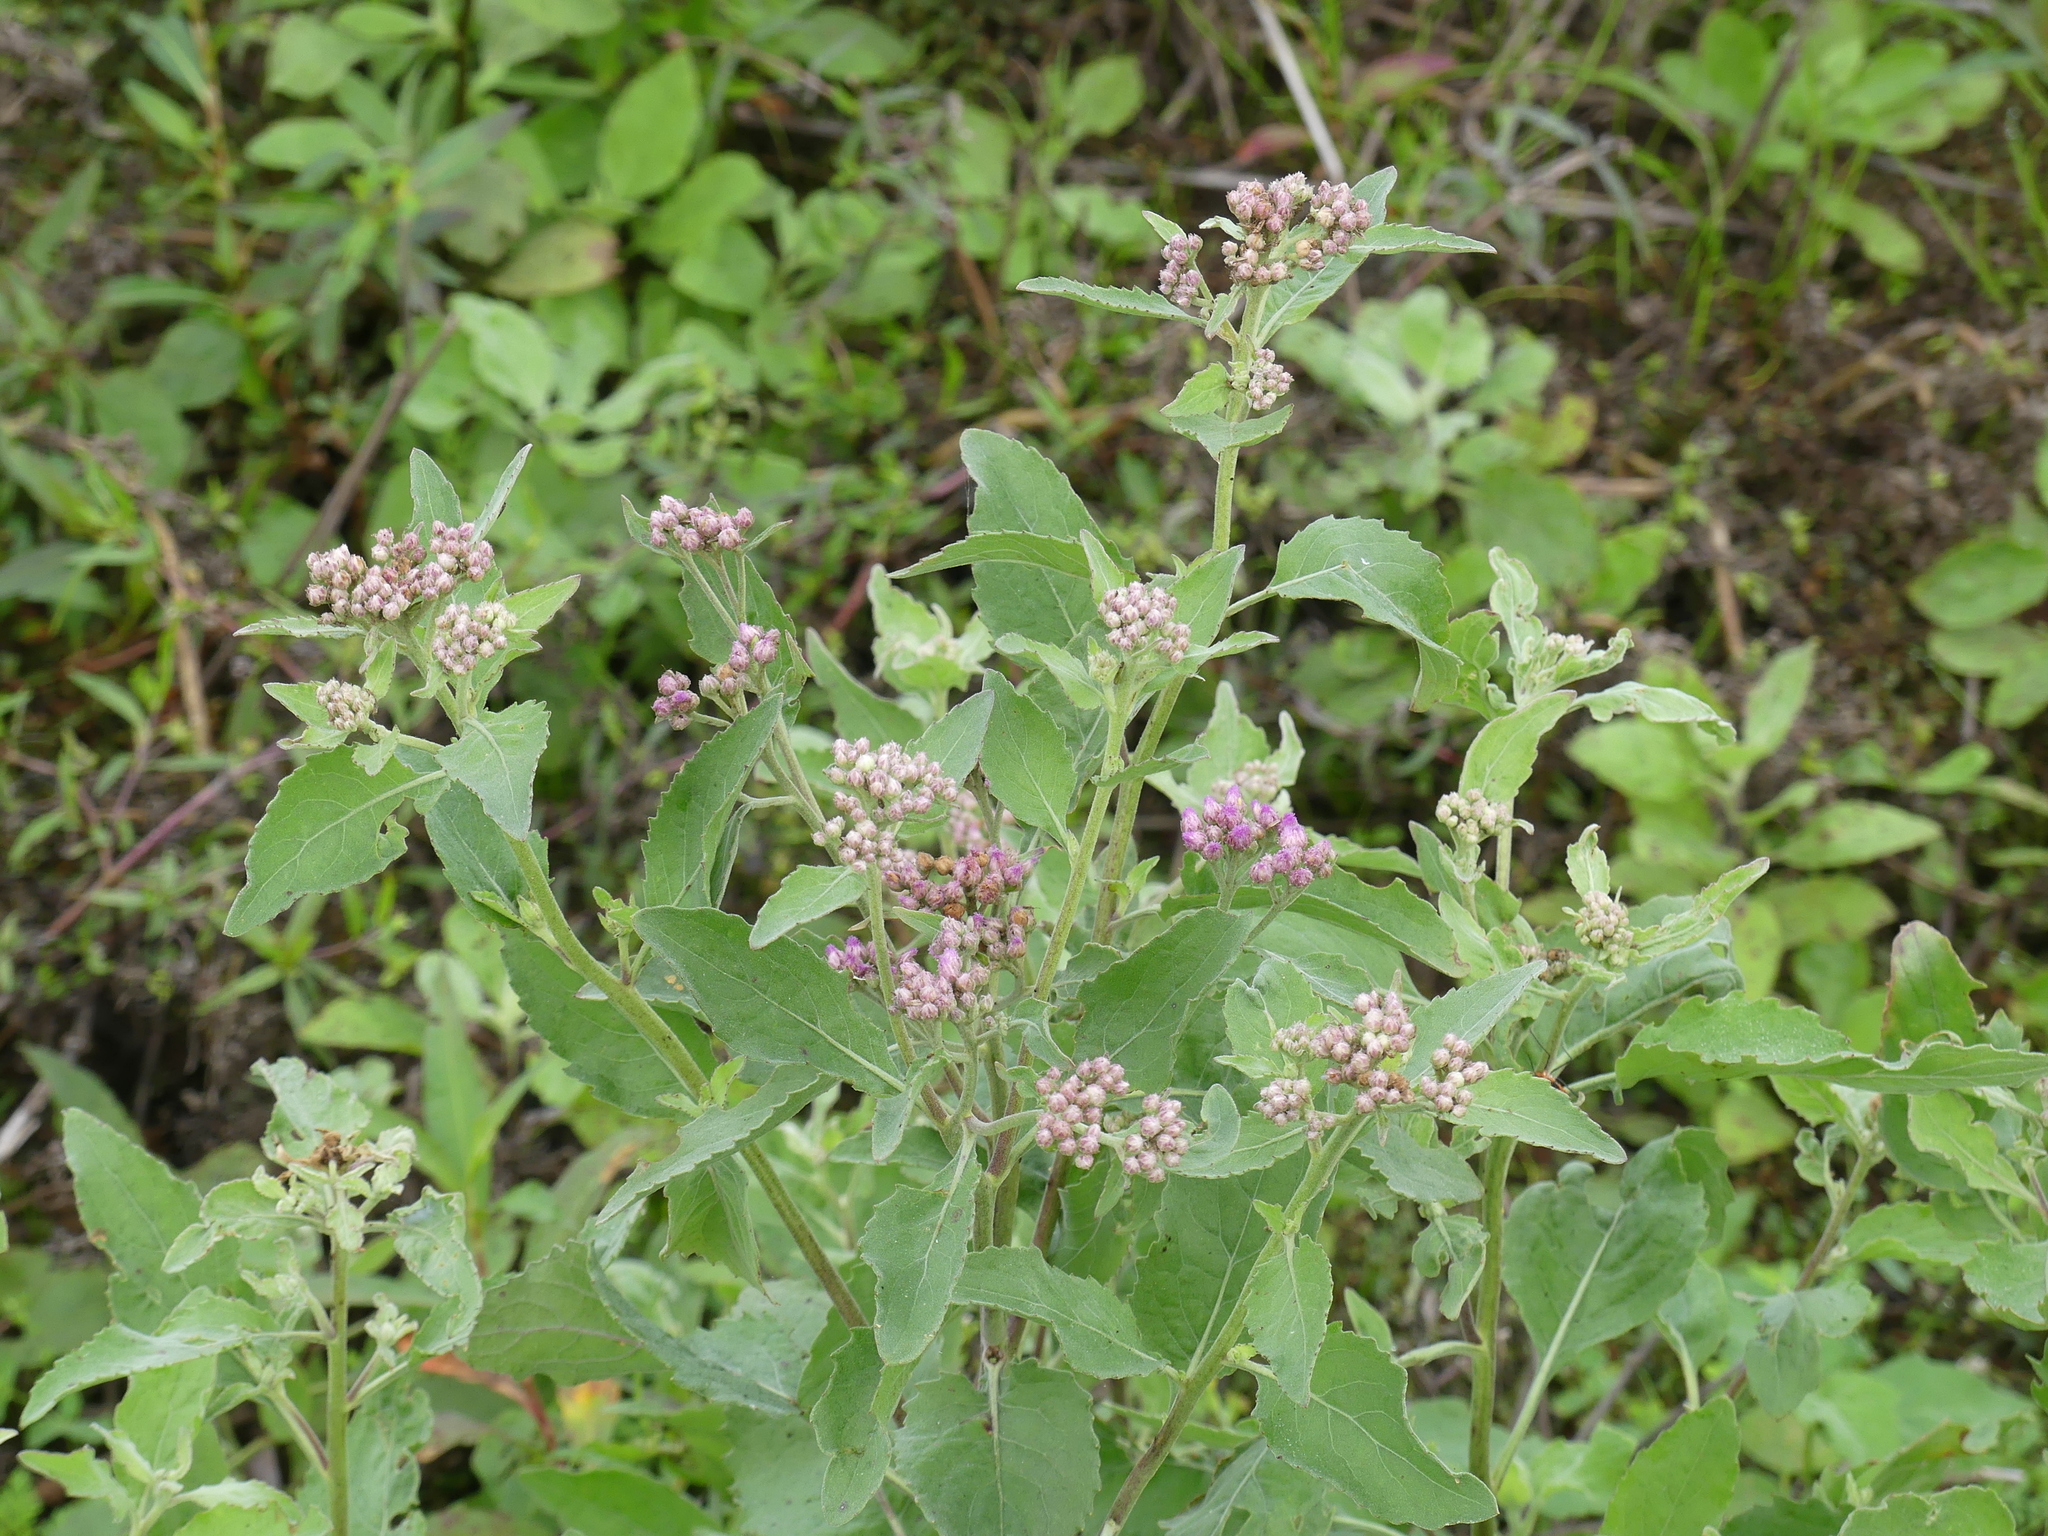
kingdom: Plantae
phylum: Tracheophyta
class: Magnoliopsida
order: Asterales
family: Asteraceae
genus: Pluchea
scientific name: Pluchea odorata
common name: Saltmarsh fleabane
